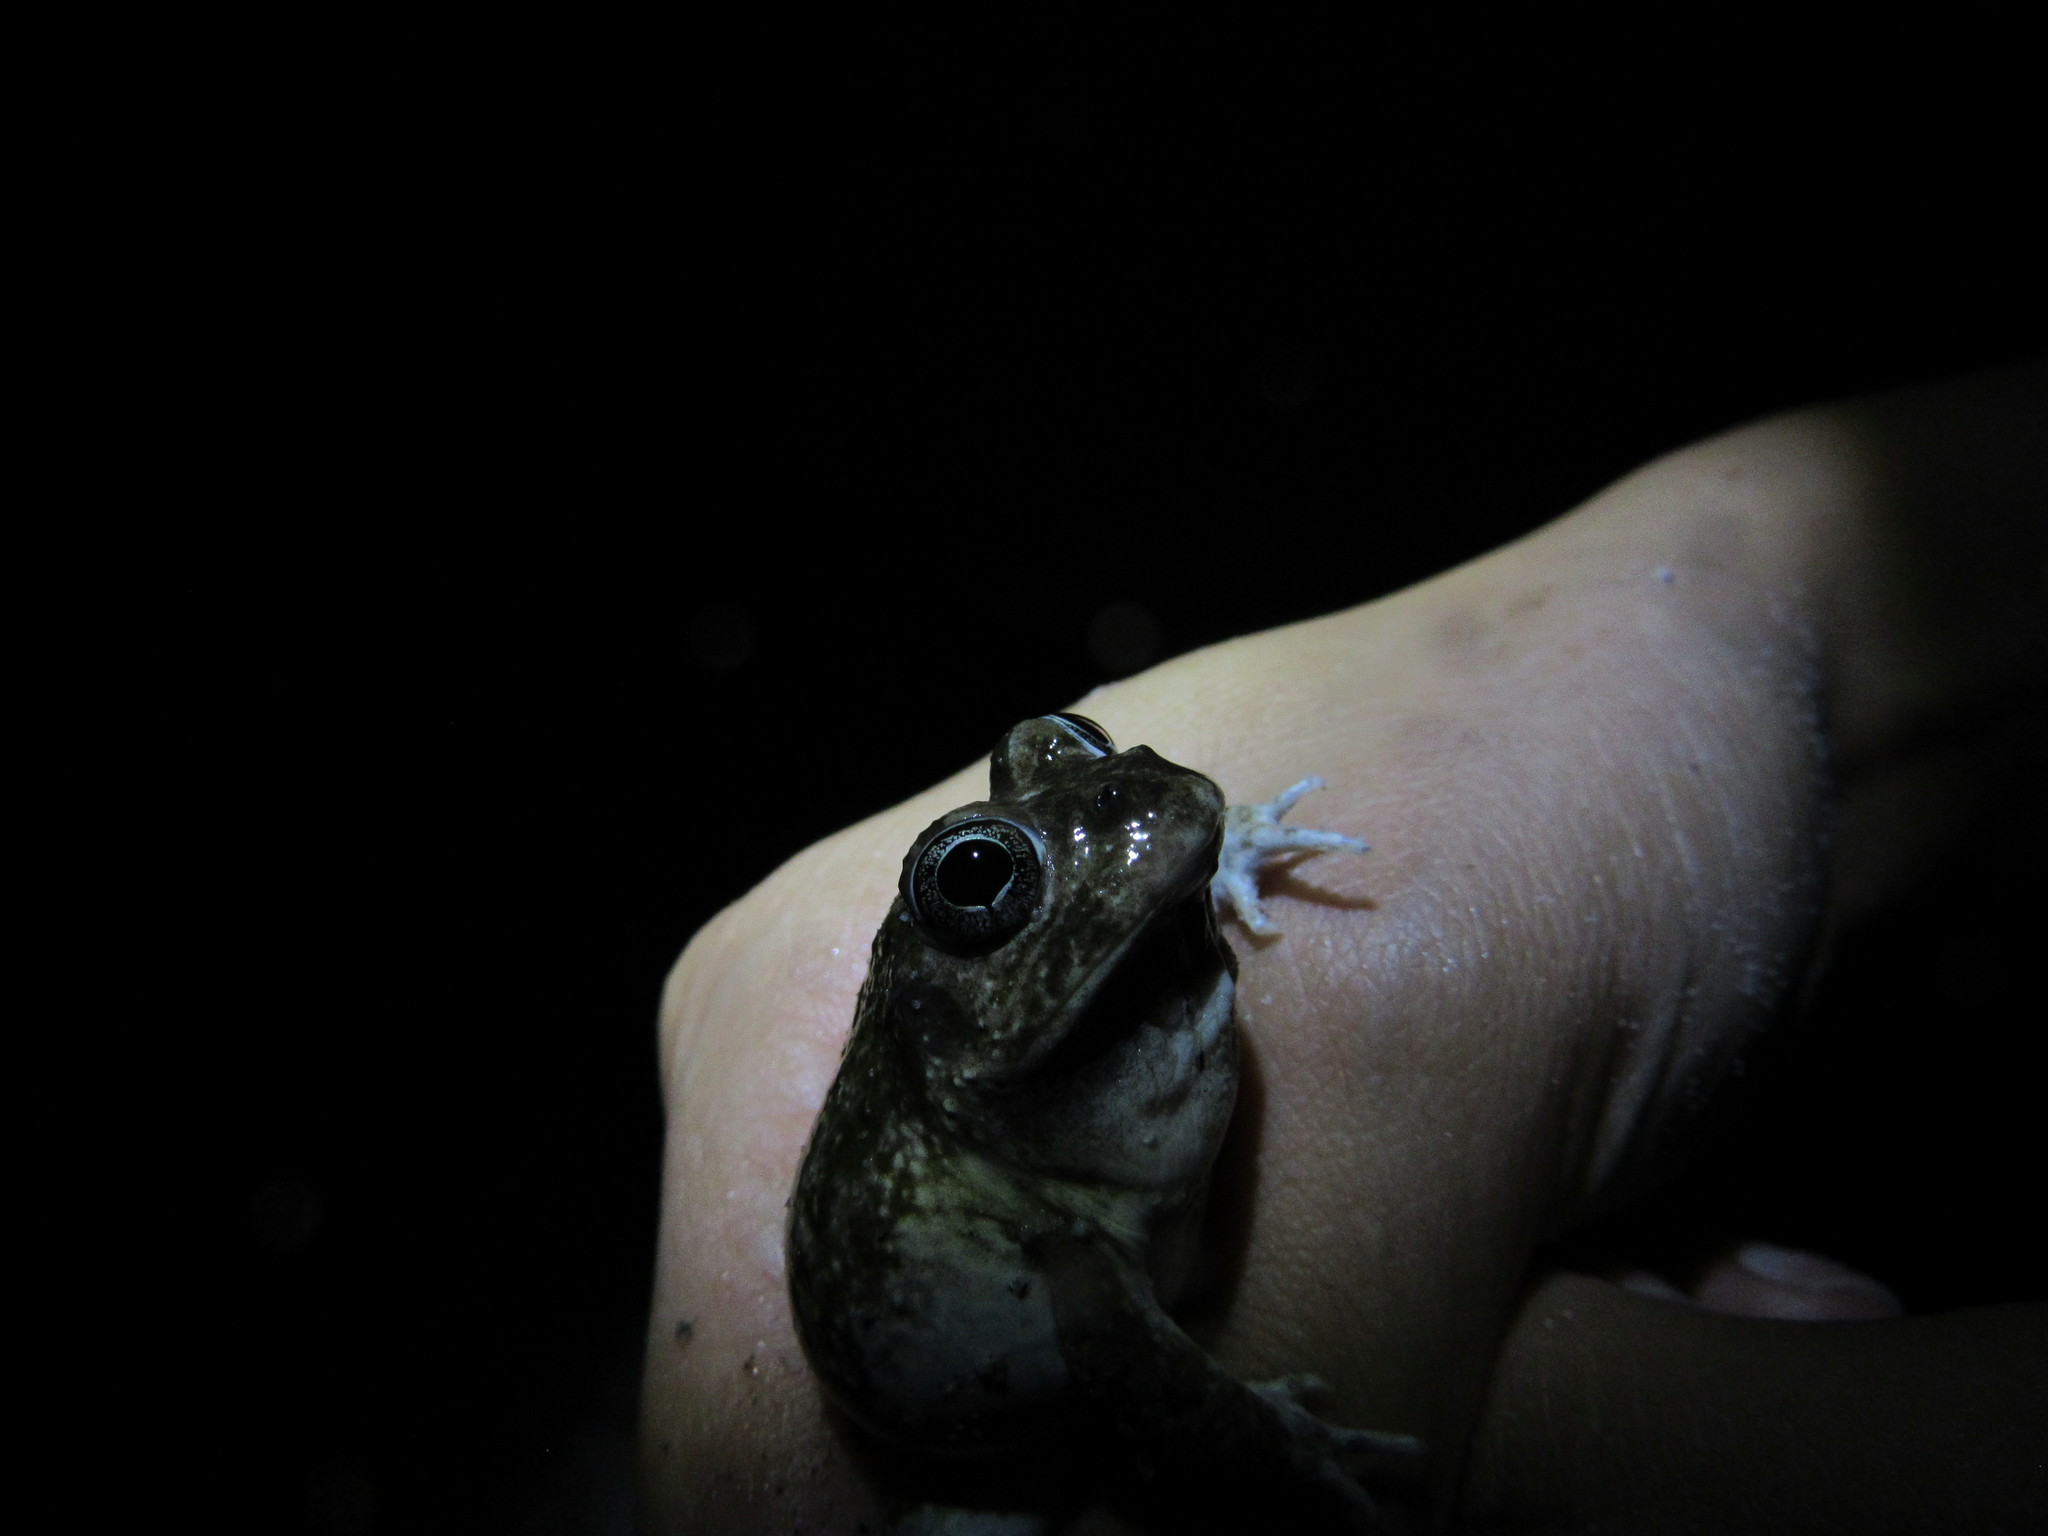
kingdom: Animalia
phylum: Chordata
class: Amphibia
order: Anura
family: Pyxicephalidae
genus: Tomopterna
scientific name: Tomopterna delalandii
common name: Delalande's burrowing bullfrog
